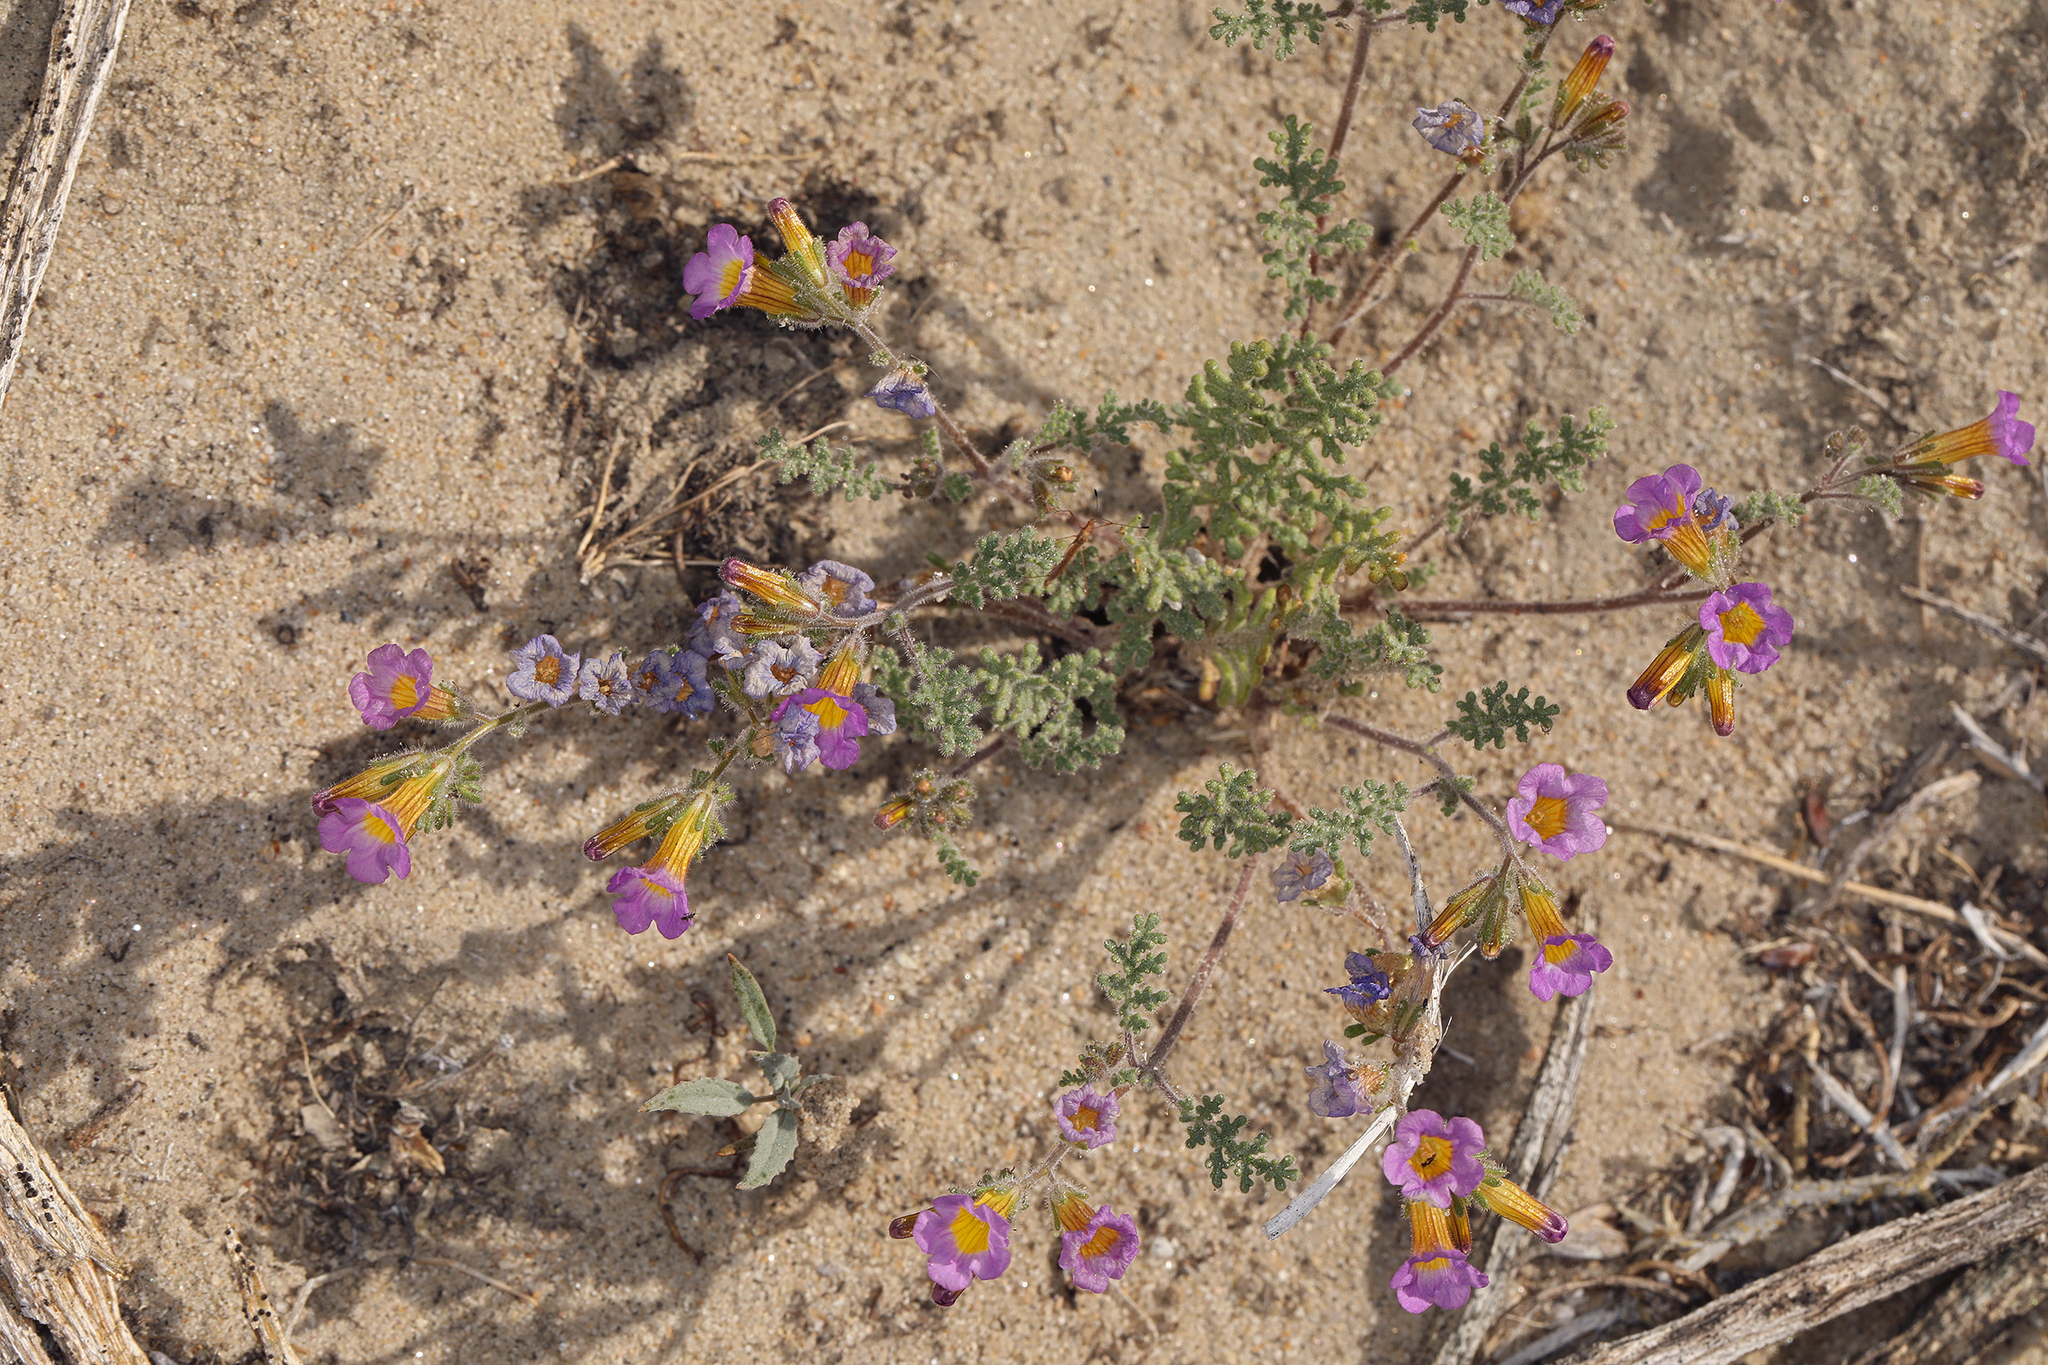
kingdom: Plantae
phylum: Tracheophyta
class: Magnoliopsida
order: Boraginales
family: Hydrophyllaceae
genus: Phacelia
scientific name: Phacelia bicolor
